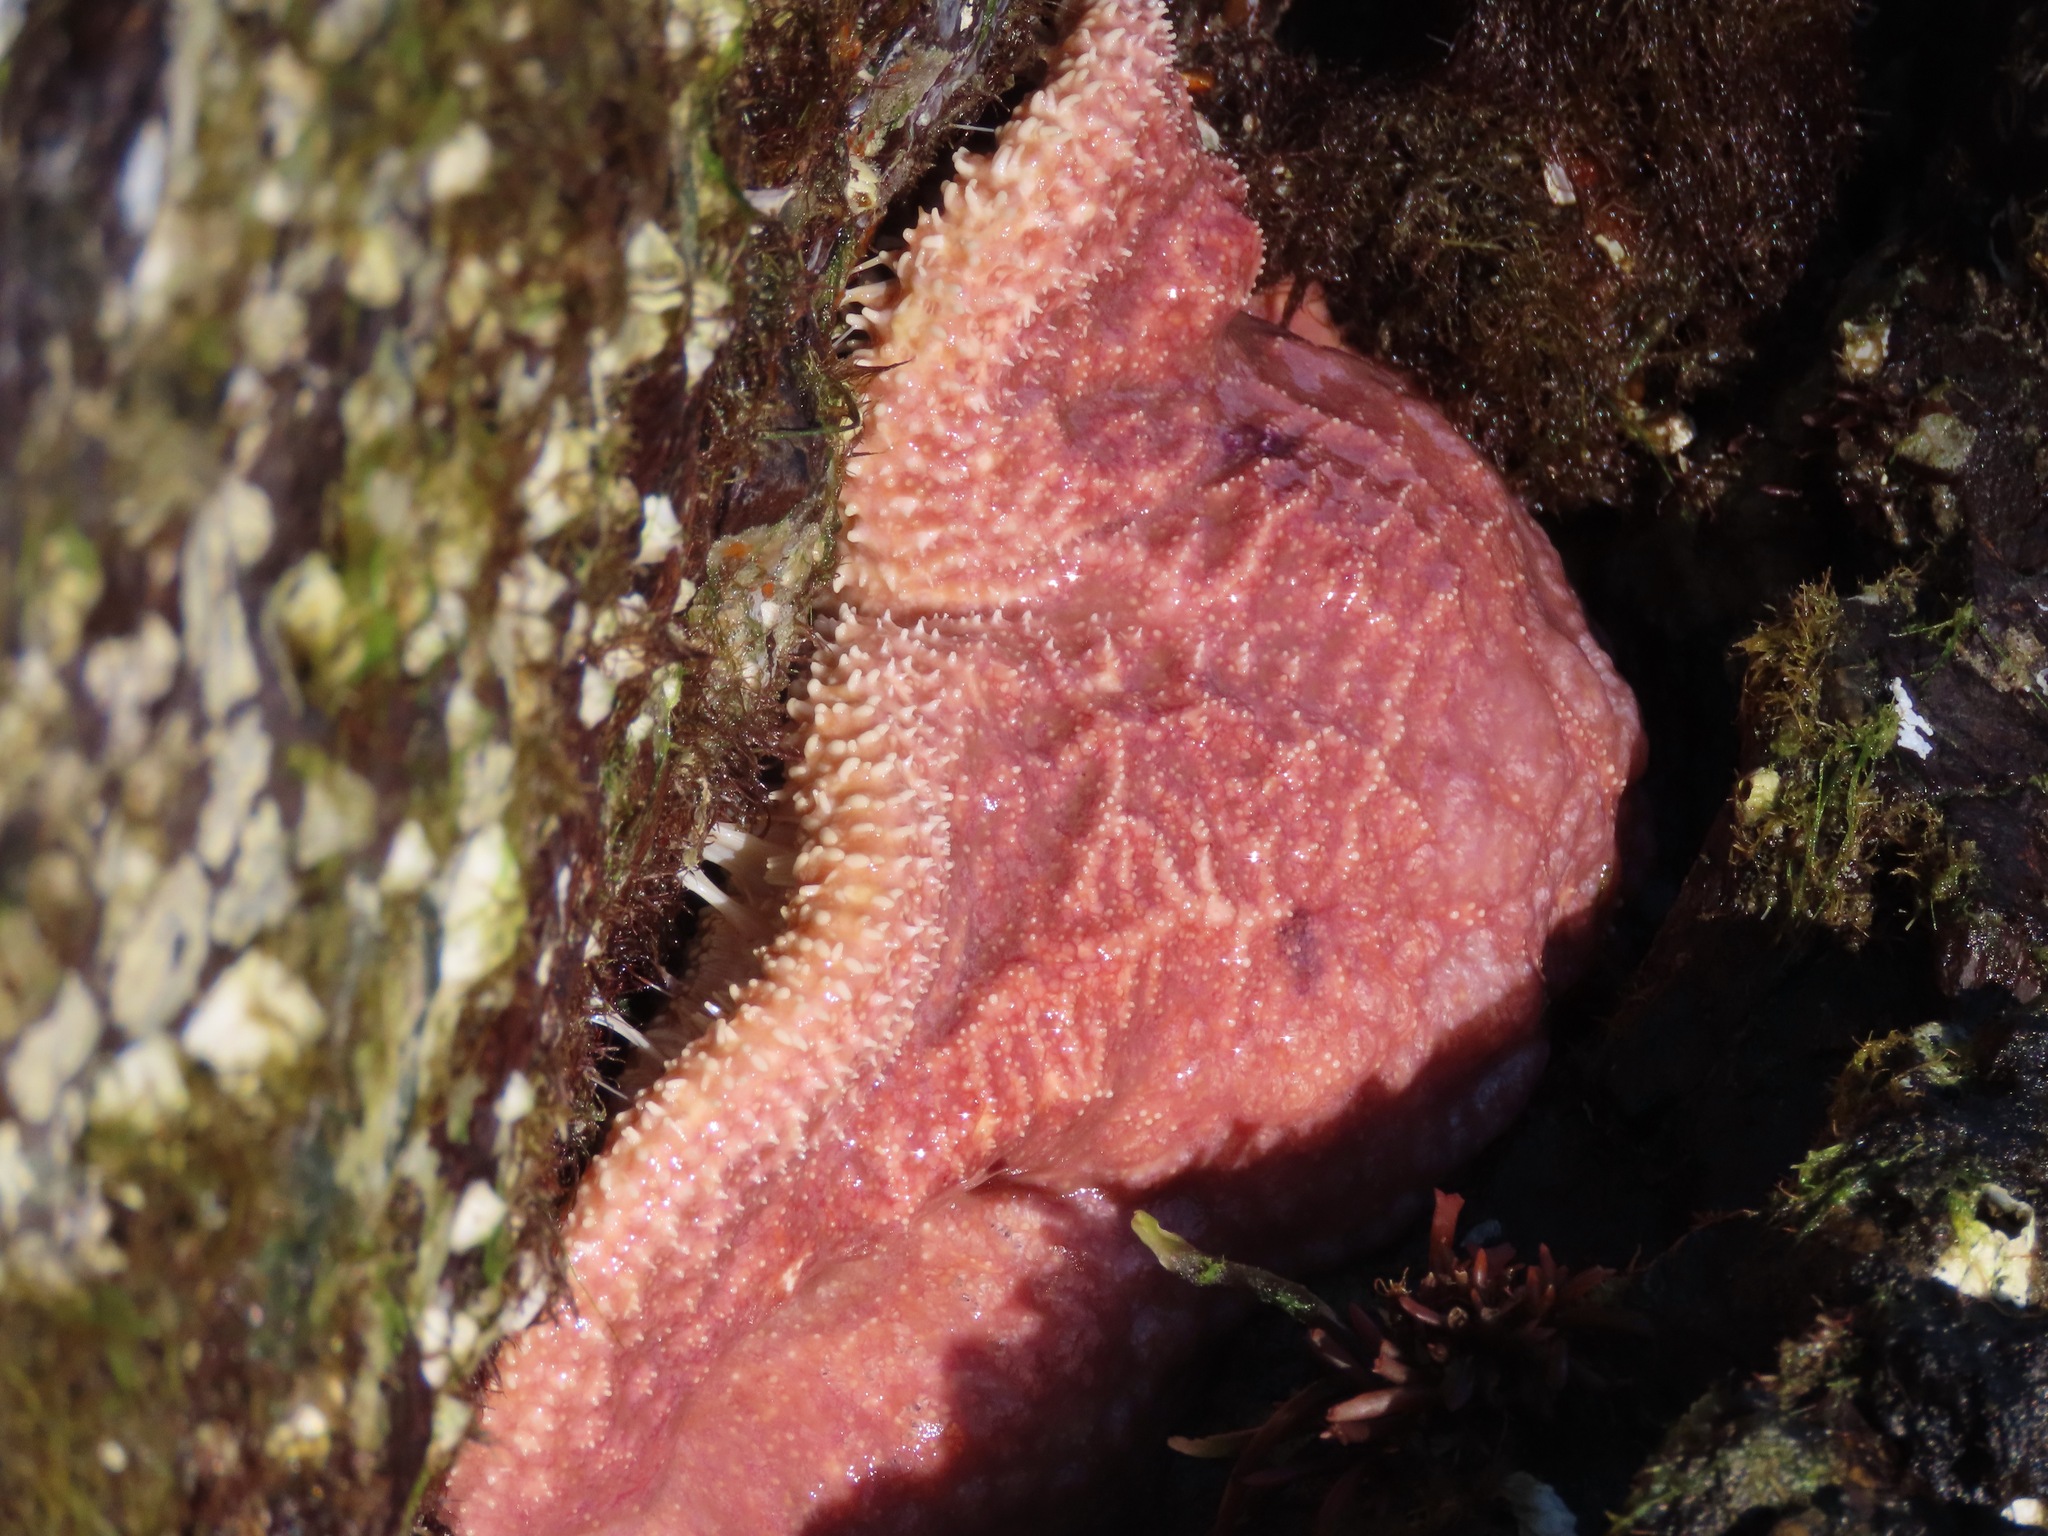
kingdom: Animalia
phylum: Echinodermata
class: Asteroidea
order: Forcipulatida
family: Asteriidae
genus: Pisaster
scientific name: Pisaster ochraceus
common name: Ochre stars
